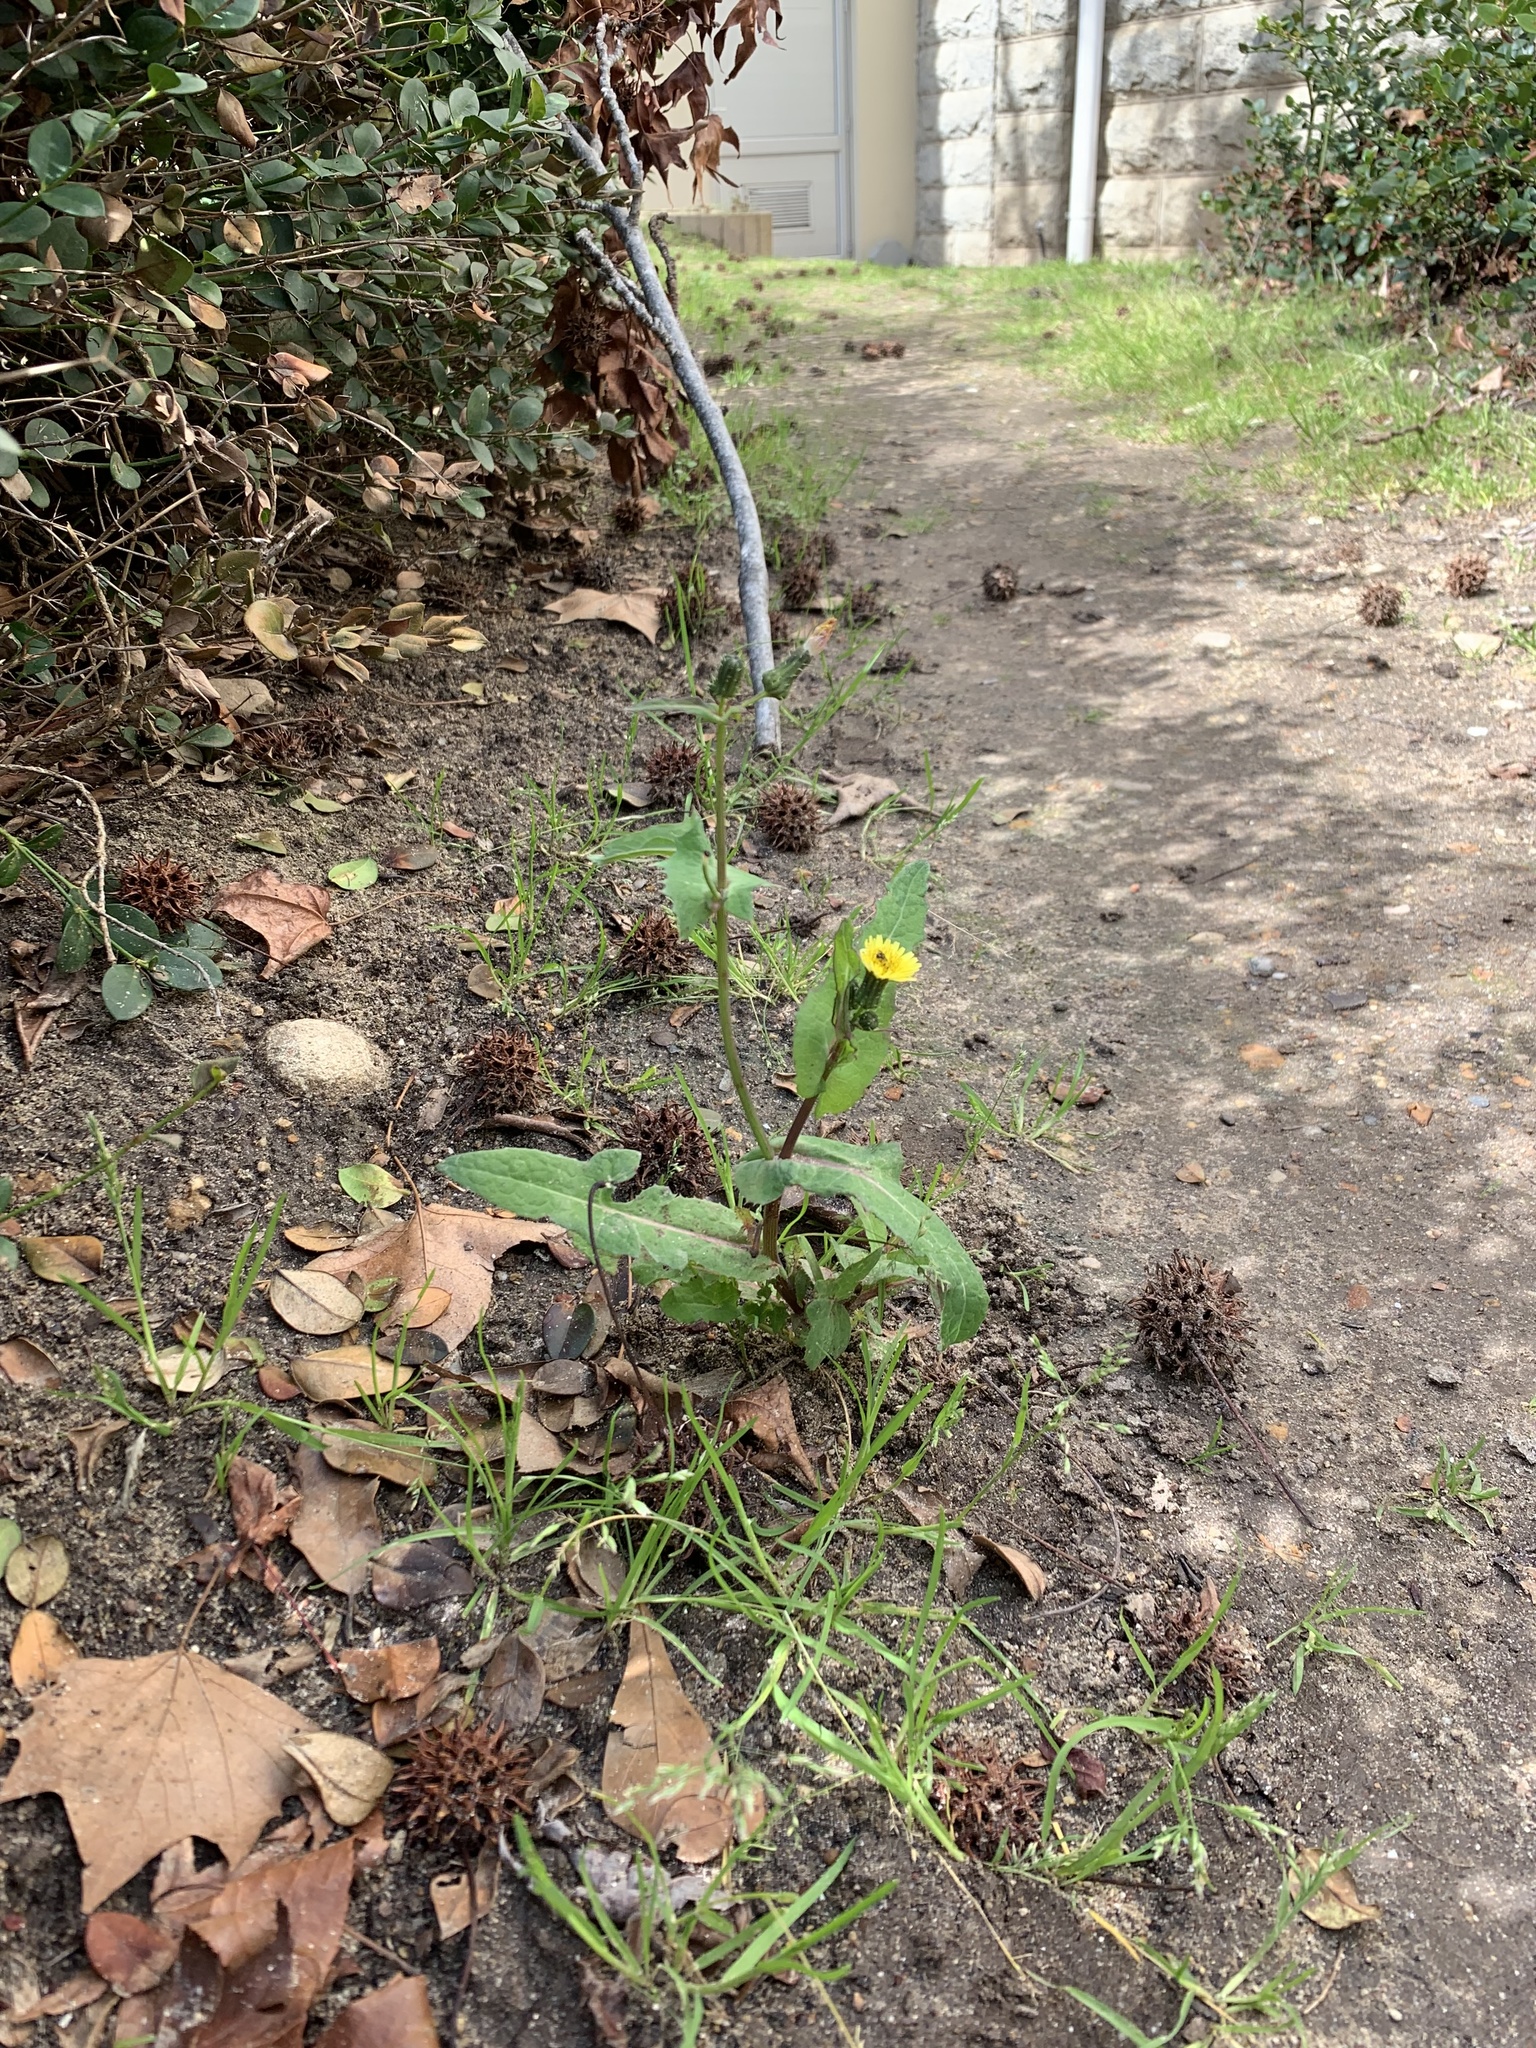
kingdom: Plantae
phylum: Tracheophyta
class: Magnoliopsida
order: Asterales
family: Asteraceae
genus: Sonchus
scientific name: Sonchus oleraceus
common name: Common sowthistle
